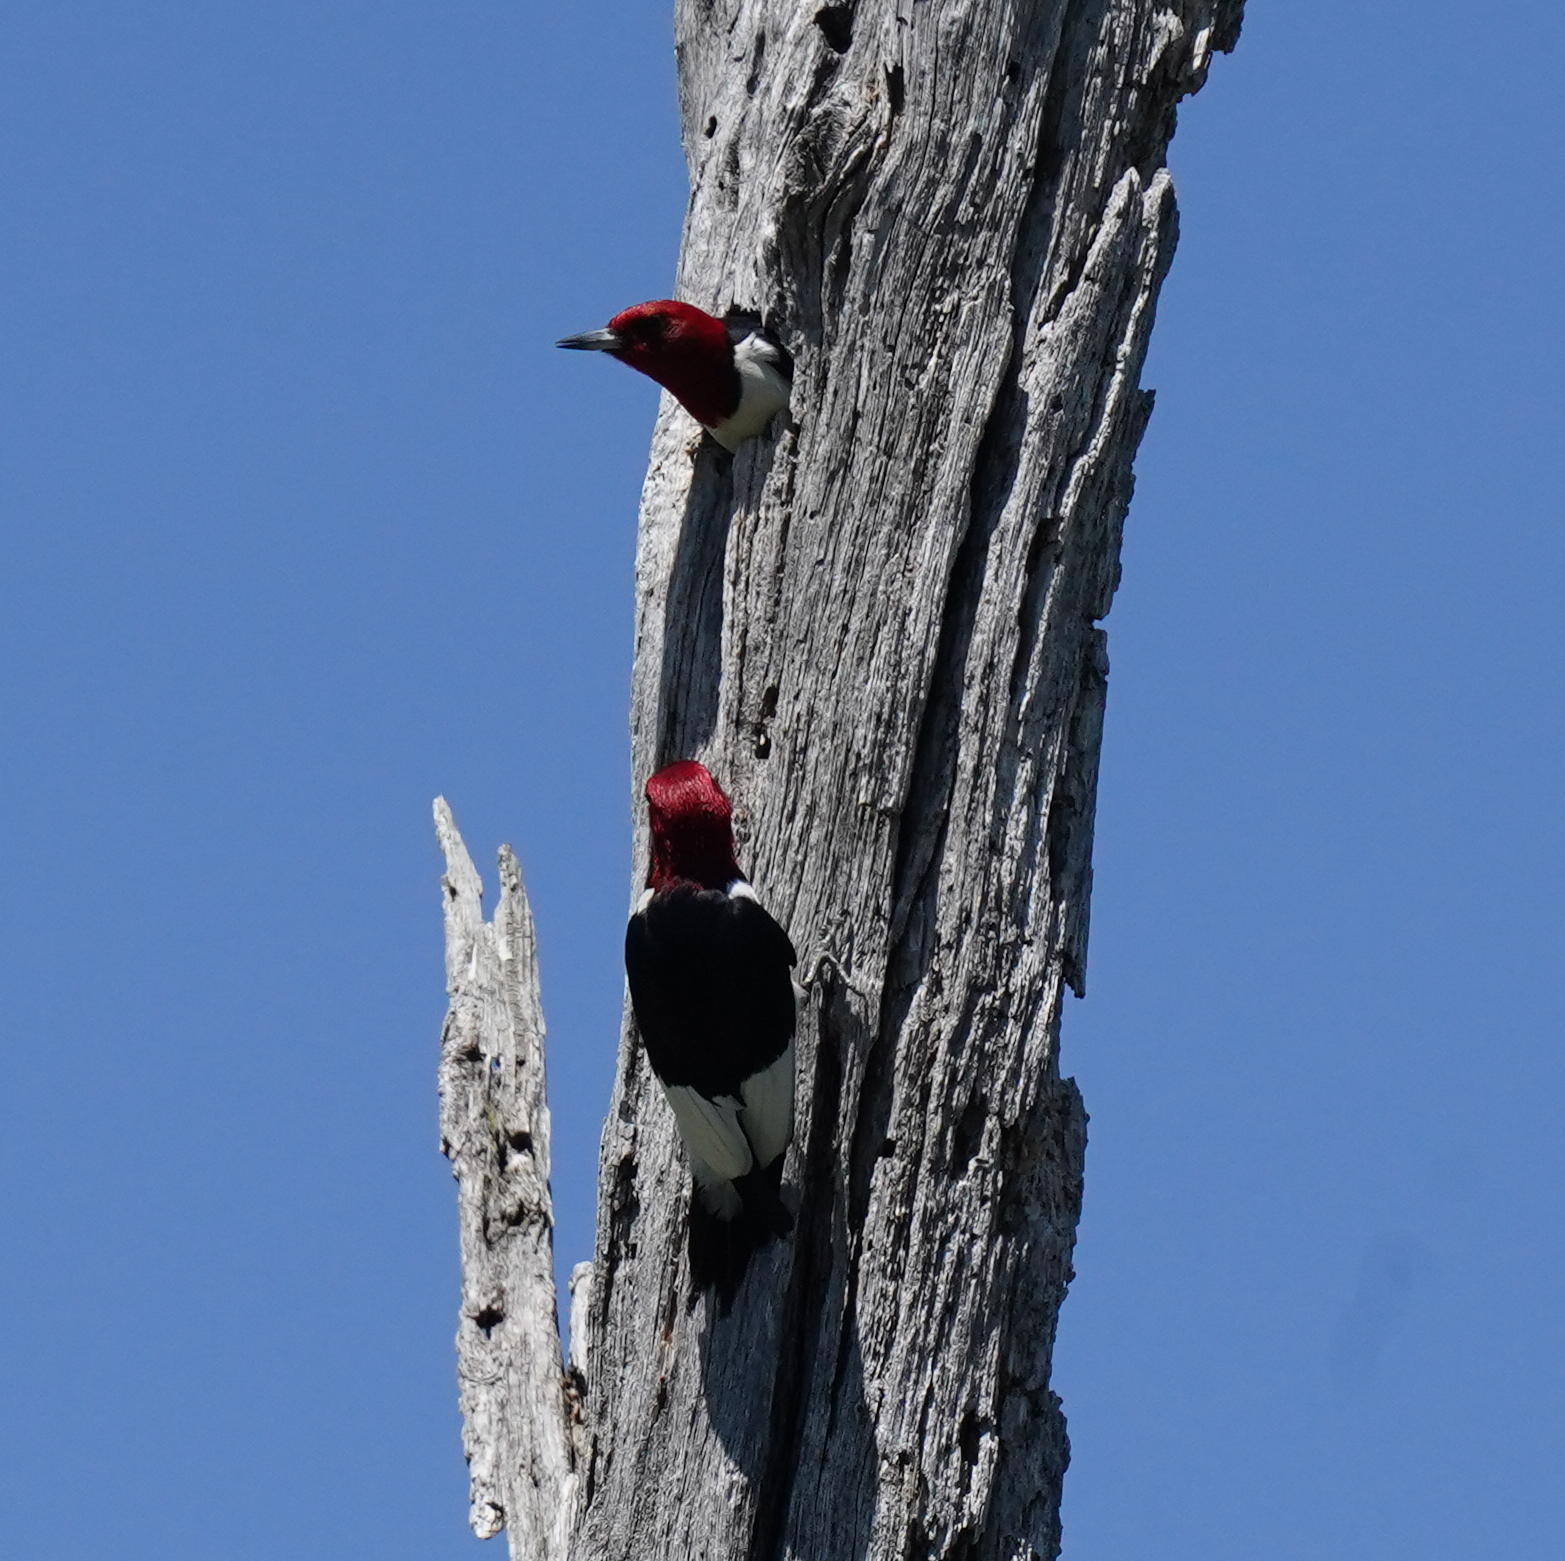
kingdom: Animalia
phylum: Chordata
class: Aves
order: Piciformes
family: Picidae
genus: Melanerpes
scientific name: Melanerpes erythrocephalus
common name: Red-headed woodpecker
